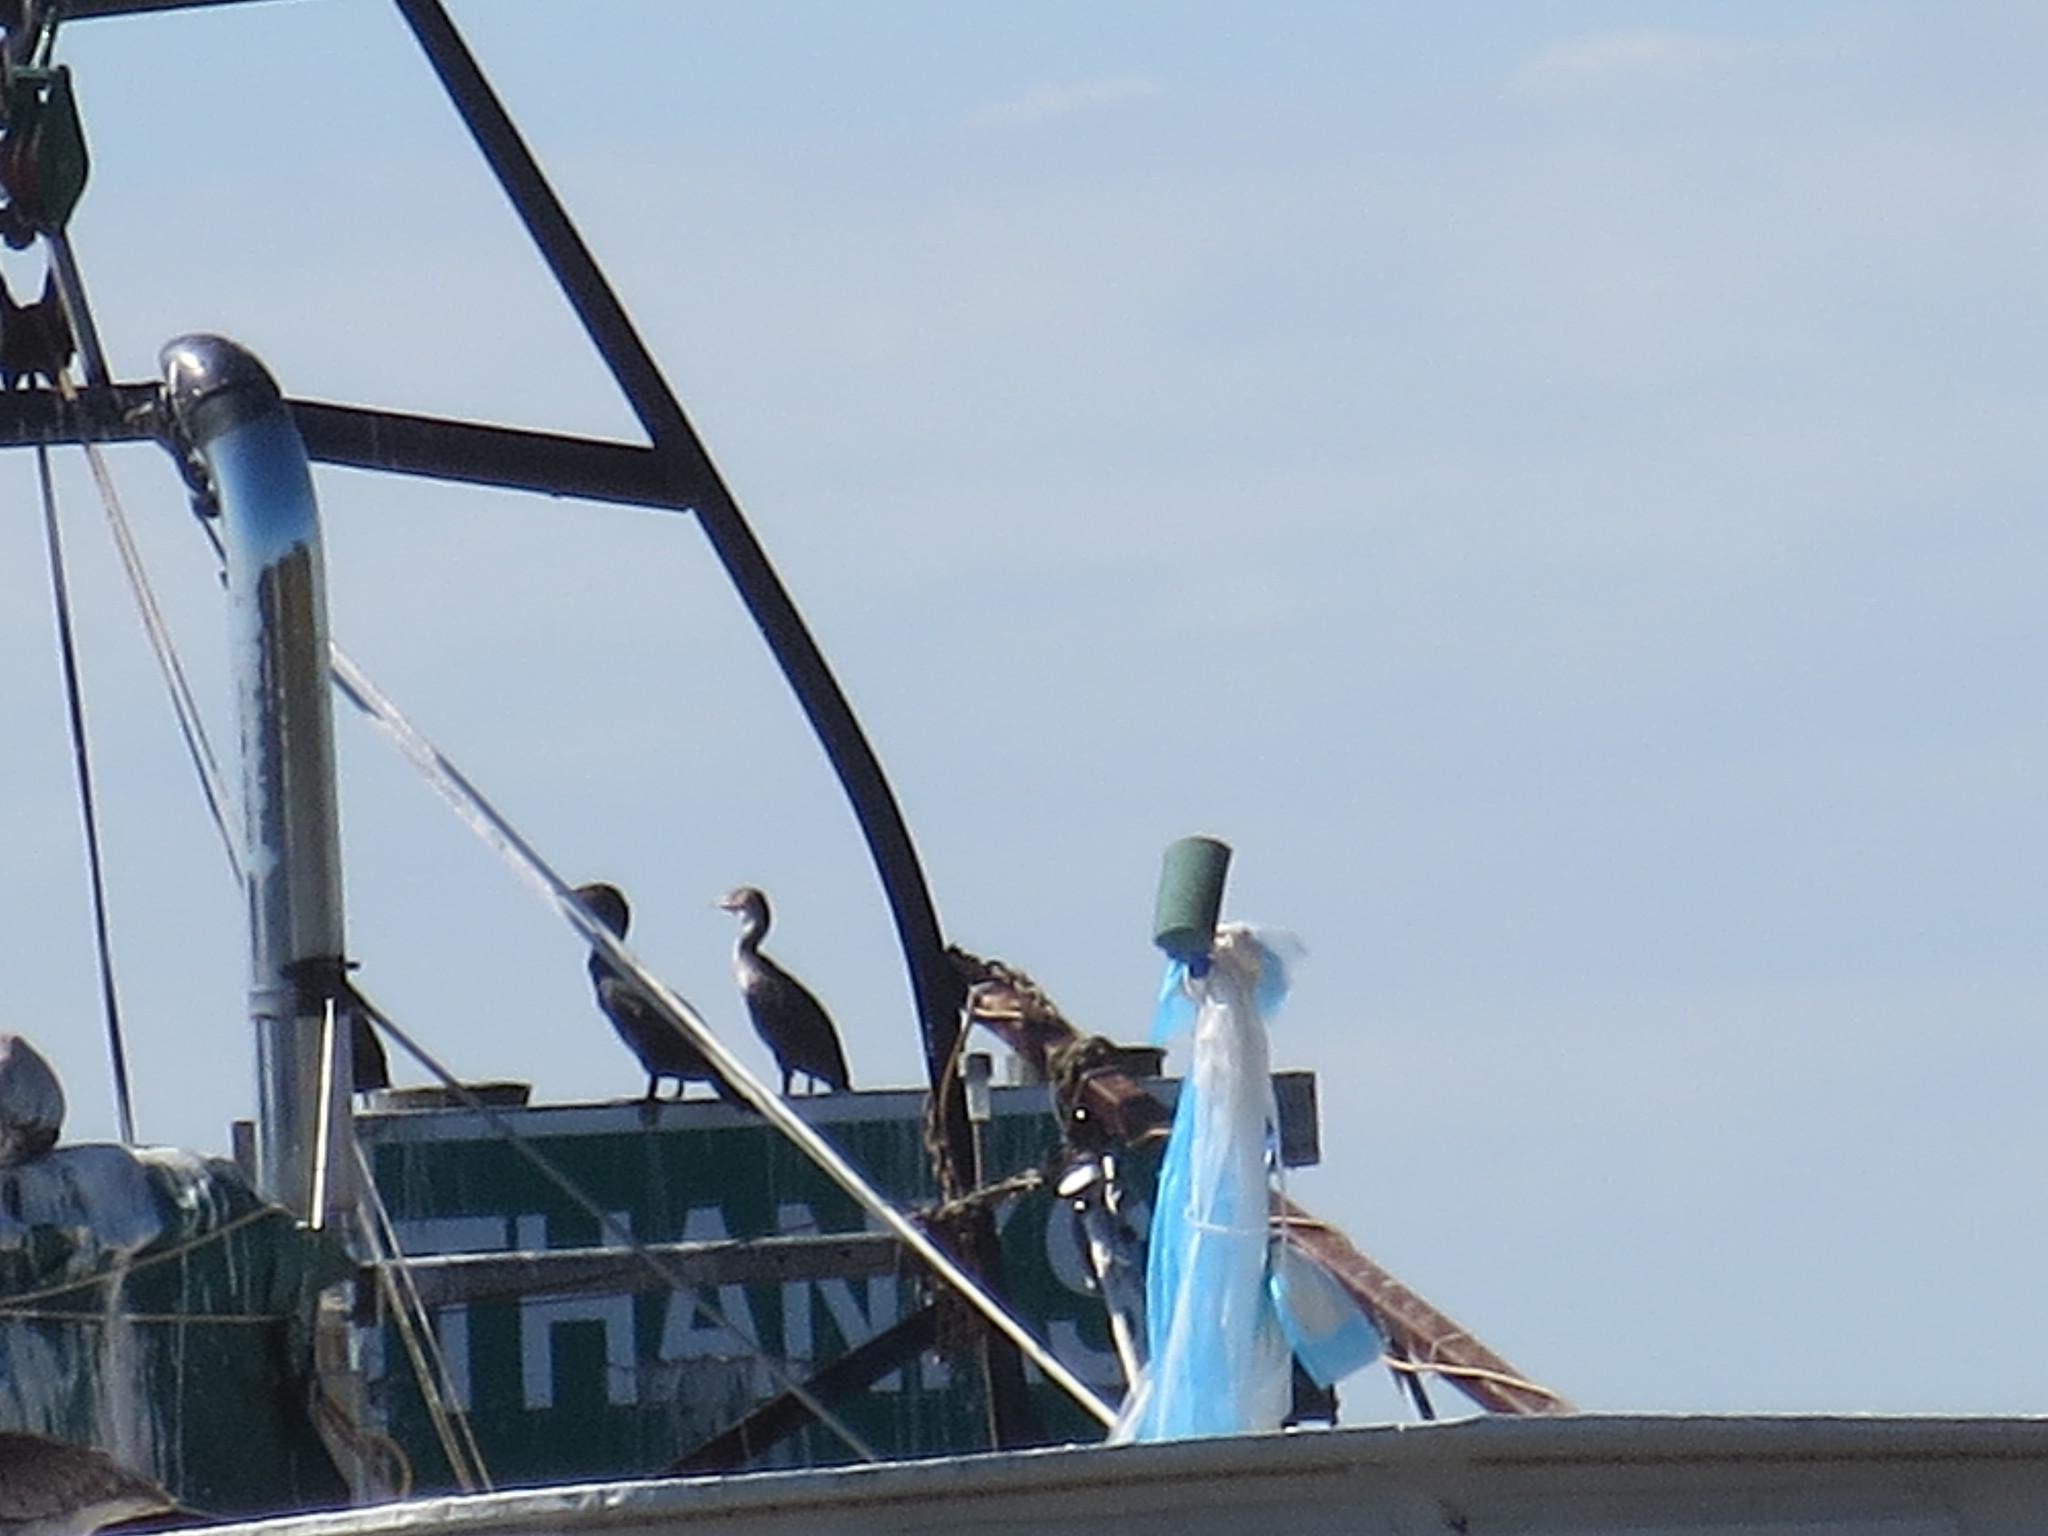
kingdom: Animalia
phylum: Chordata
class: Aves
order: Suliformes
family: Phalacrocoracidae
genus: Phalacrocorax
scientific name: Phalacrocorax auritus
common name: Double-crested cormorant
